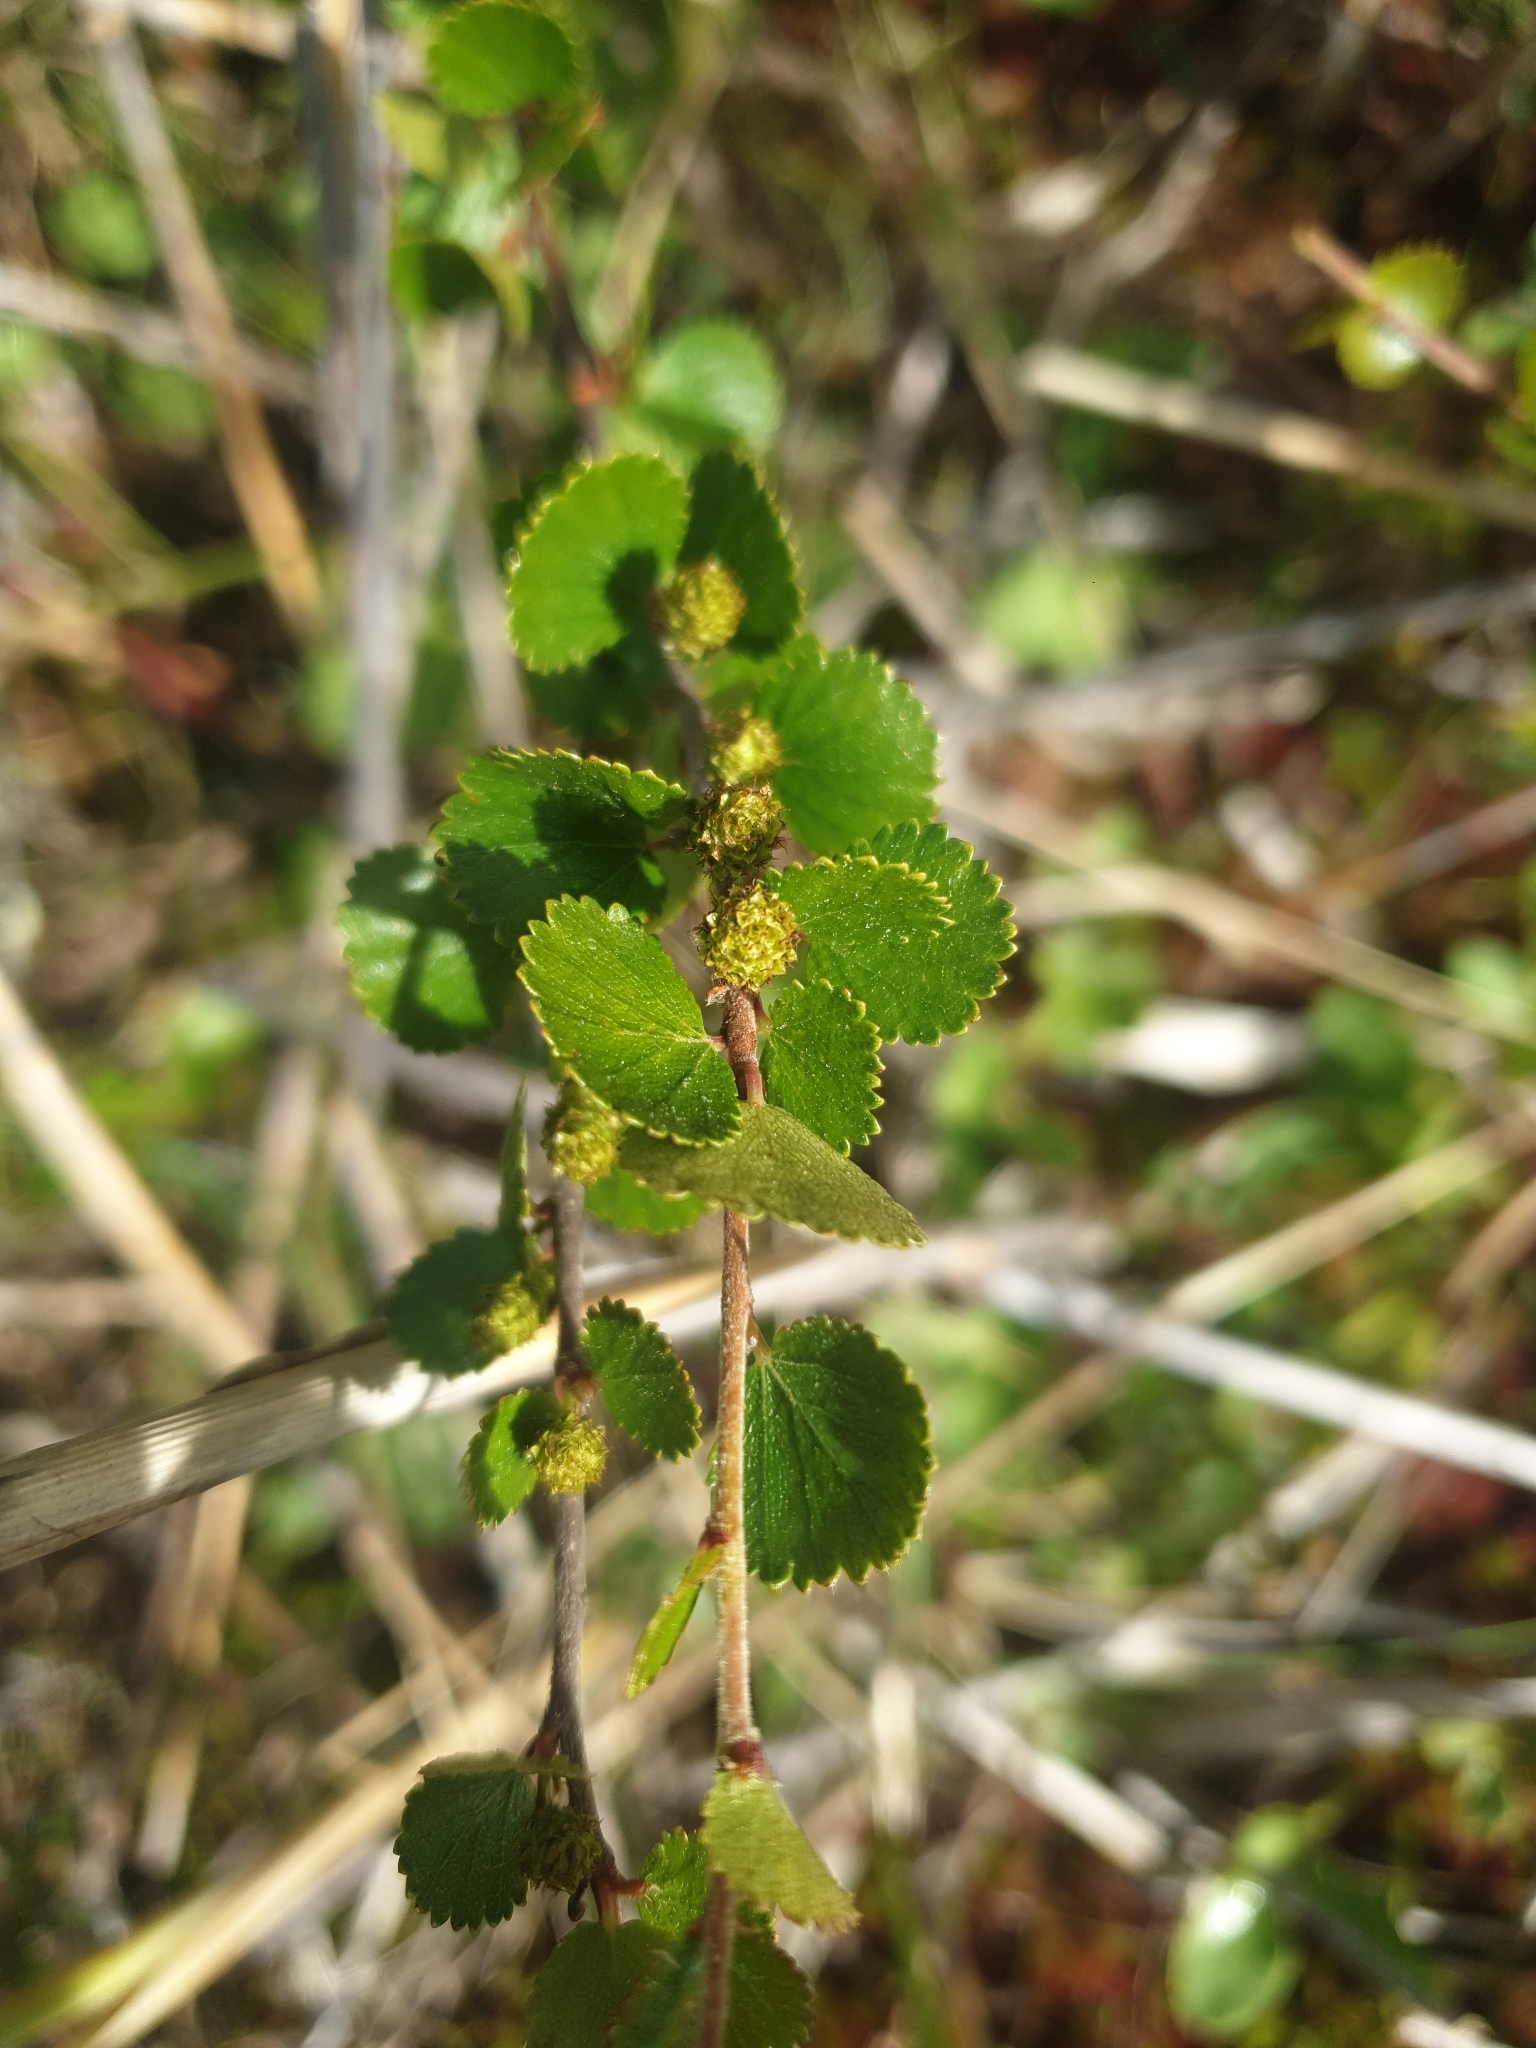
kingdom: Plantae
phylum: Tracheophyta
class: Magnoliopsida
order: Fagales
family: Betulaceae
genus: Betula
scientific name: Betula nana
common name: Arctic dwarf birch
